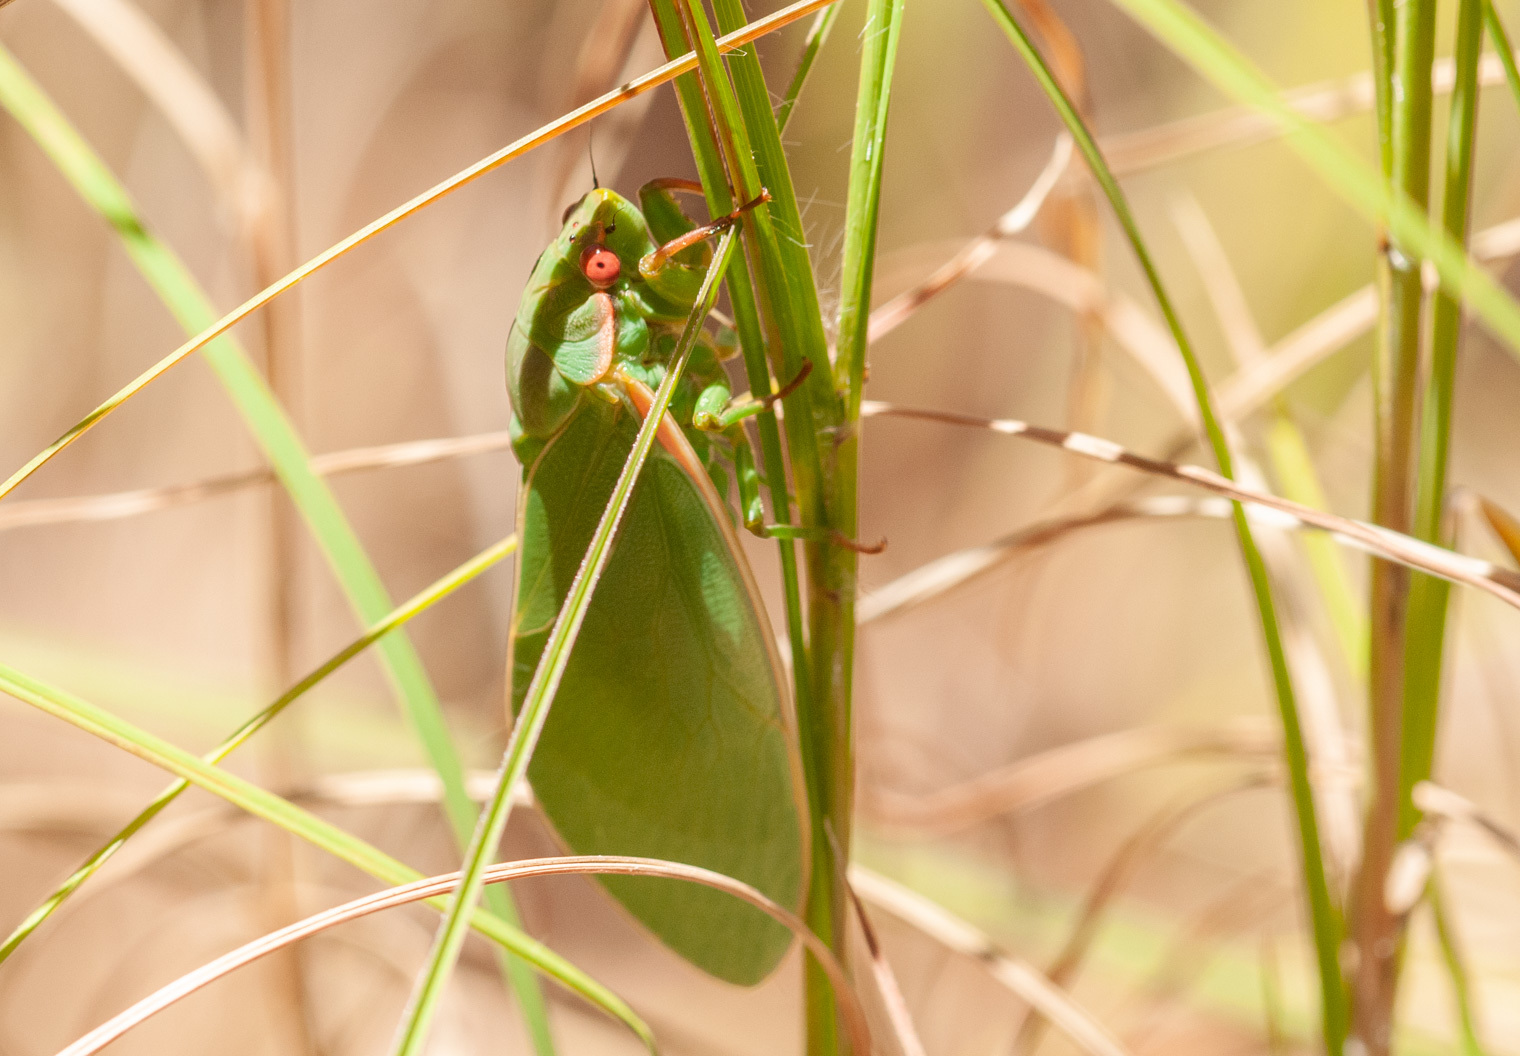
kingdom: Animalia
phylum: Arthropoda
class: Insecta
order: Hemiptera
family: Cicadidae
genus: Cystosoma
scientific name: Cystosoma schmeltzi
